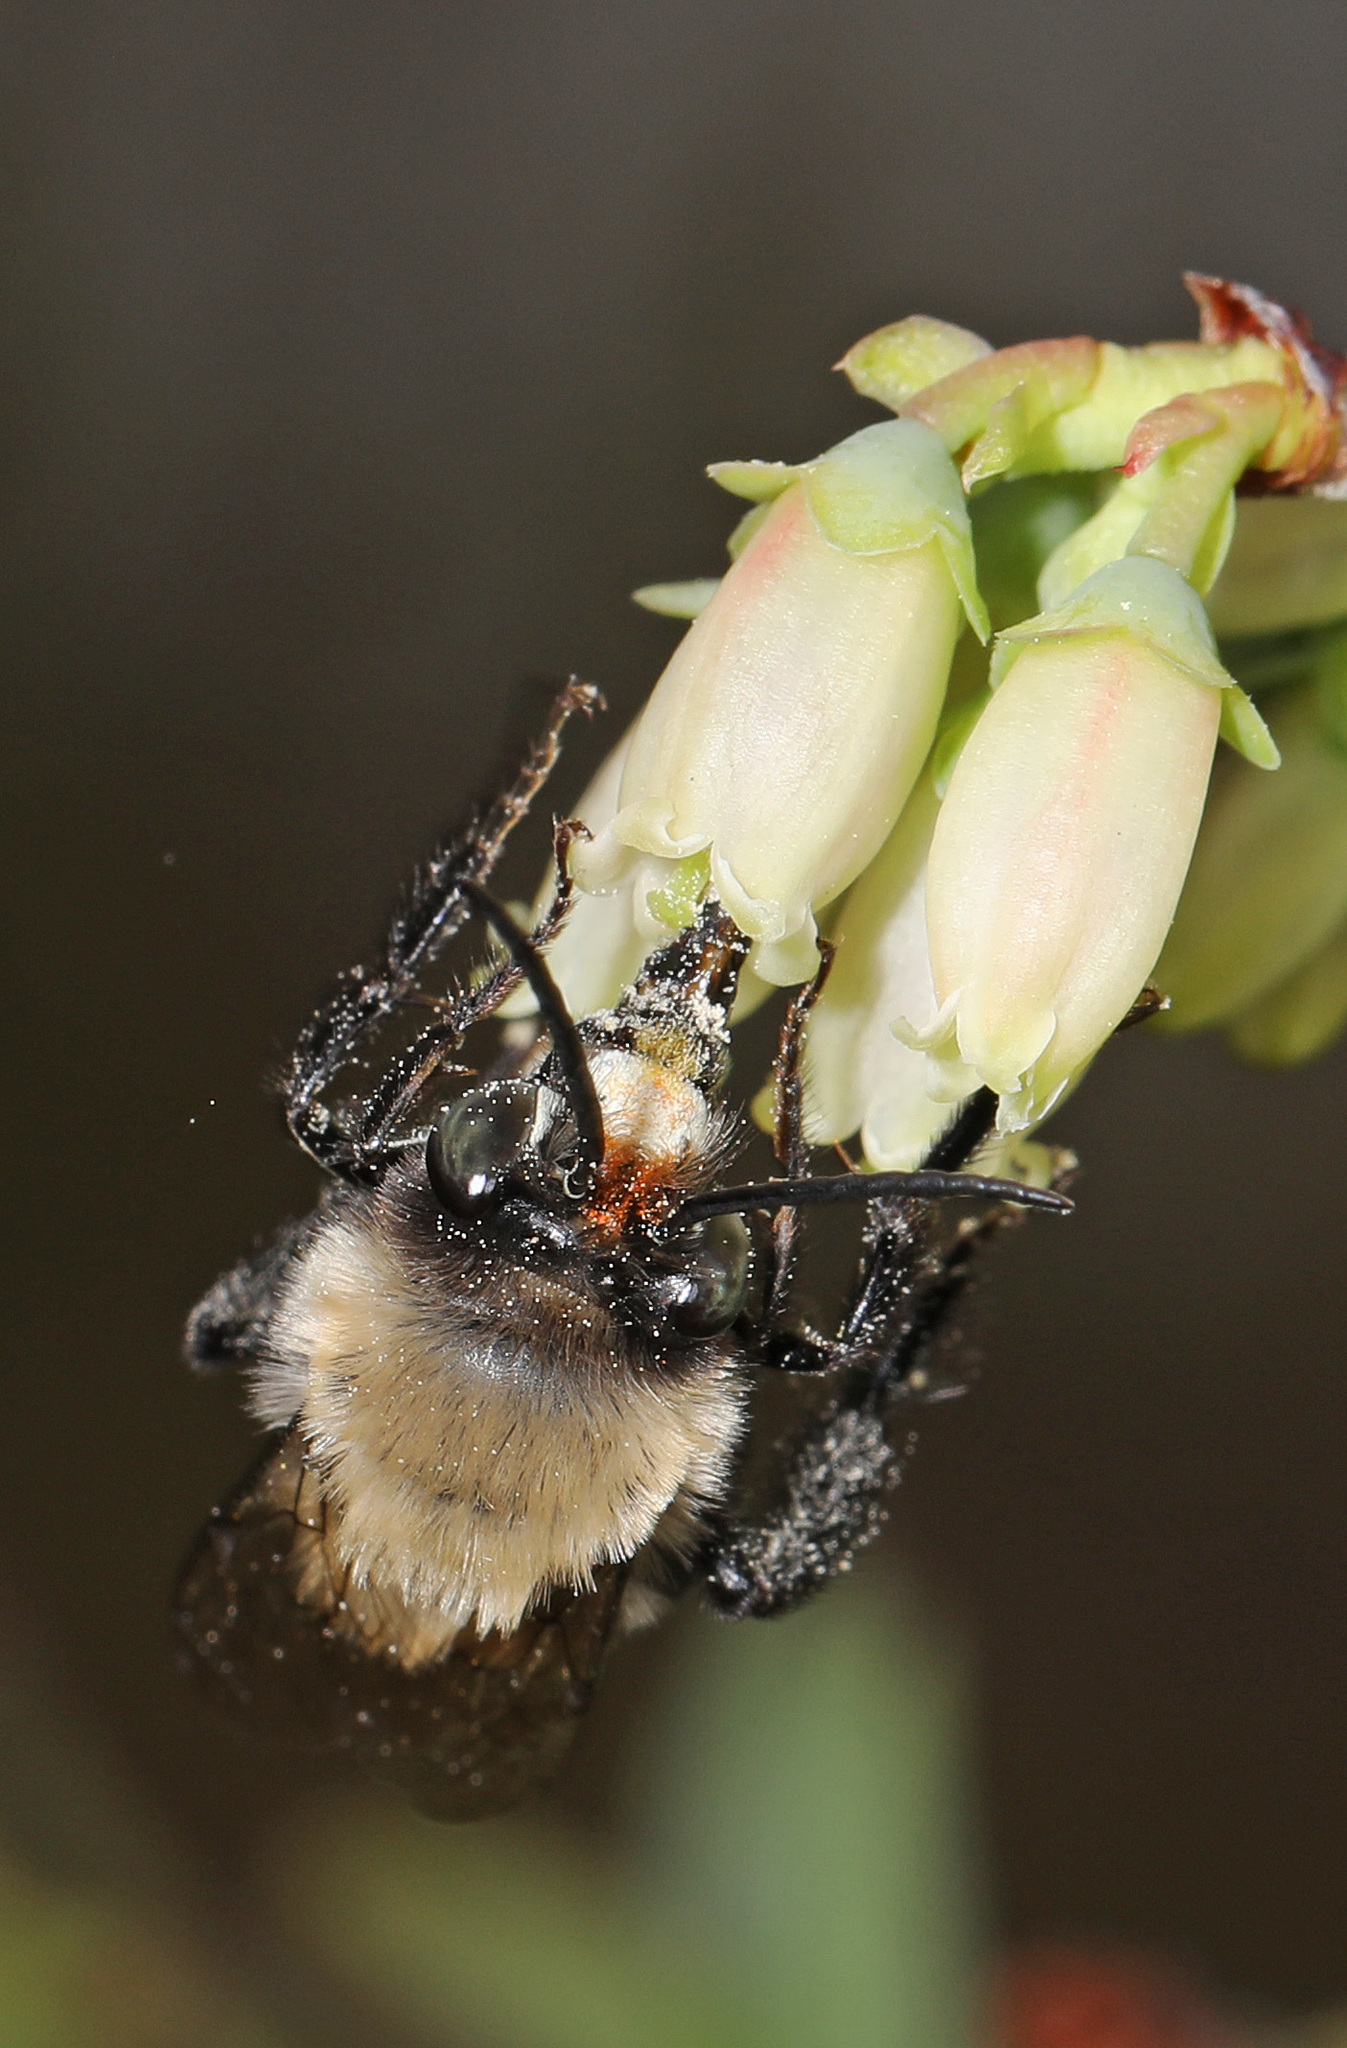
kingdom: Animalia
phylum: Arthropoda
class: Insecta
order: Hymenoptera
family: Apidae
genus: Habropoda
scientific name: Habropoda laboriosa
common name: Southeastern blueberry bee
